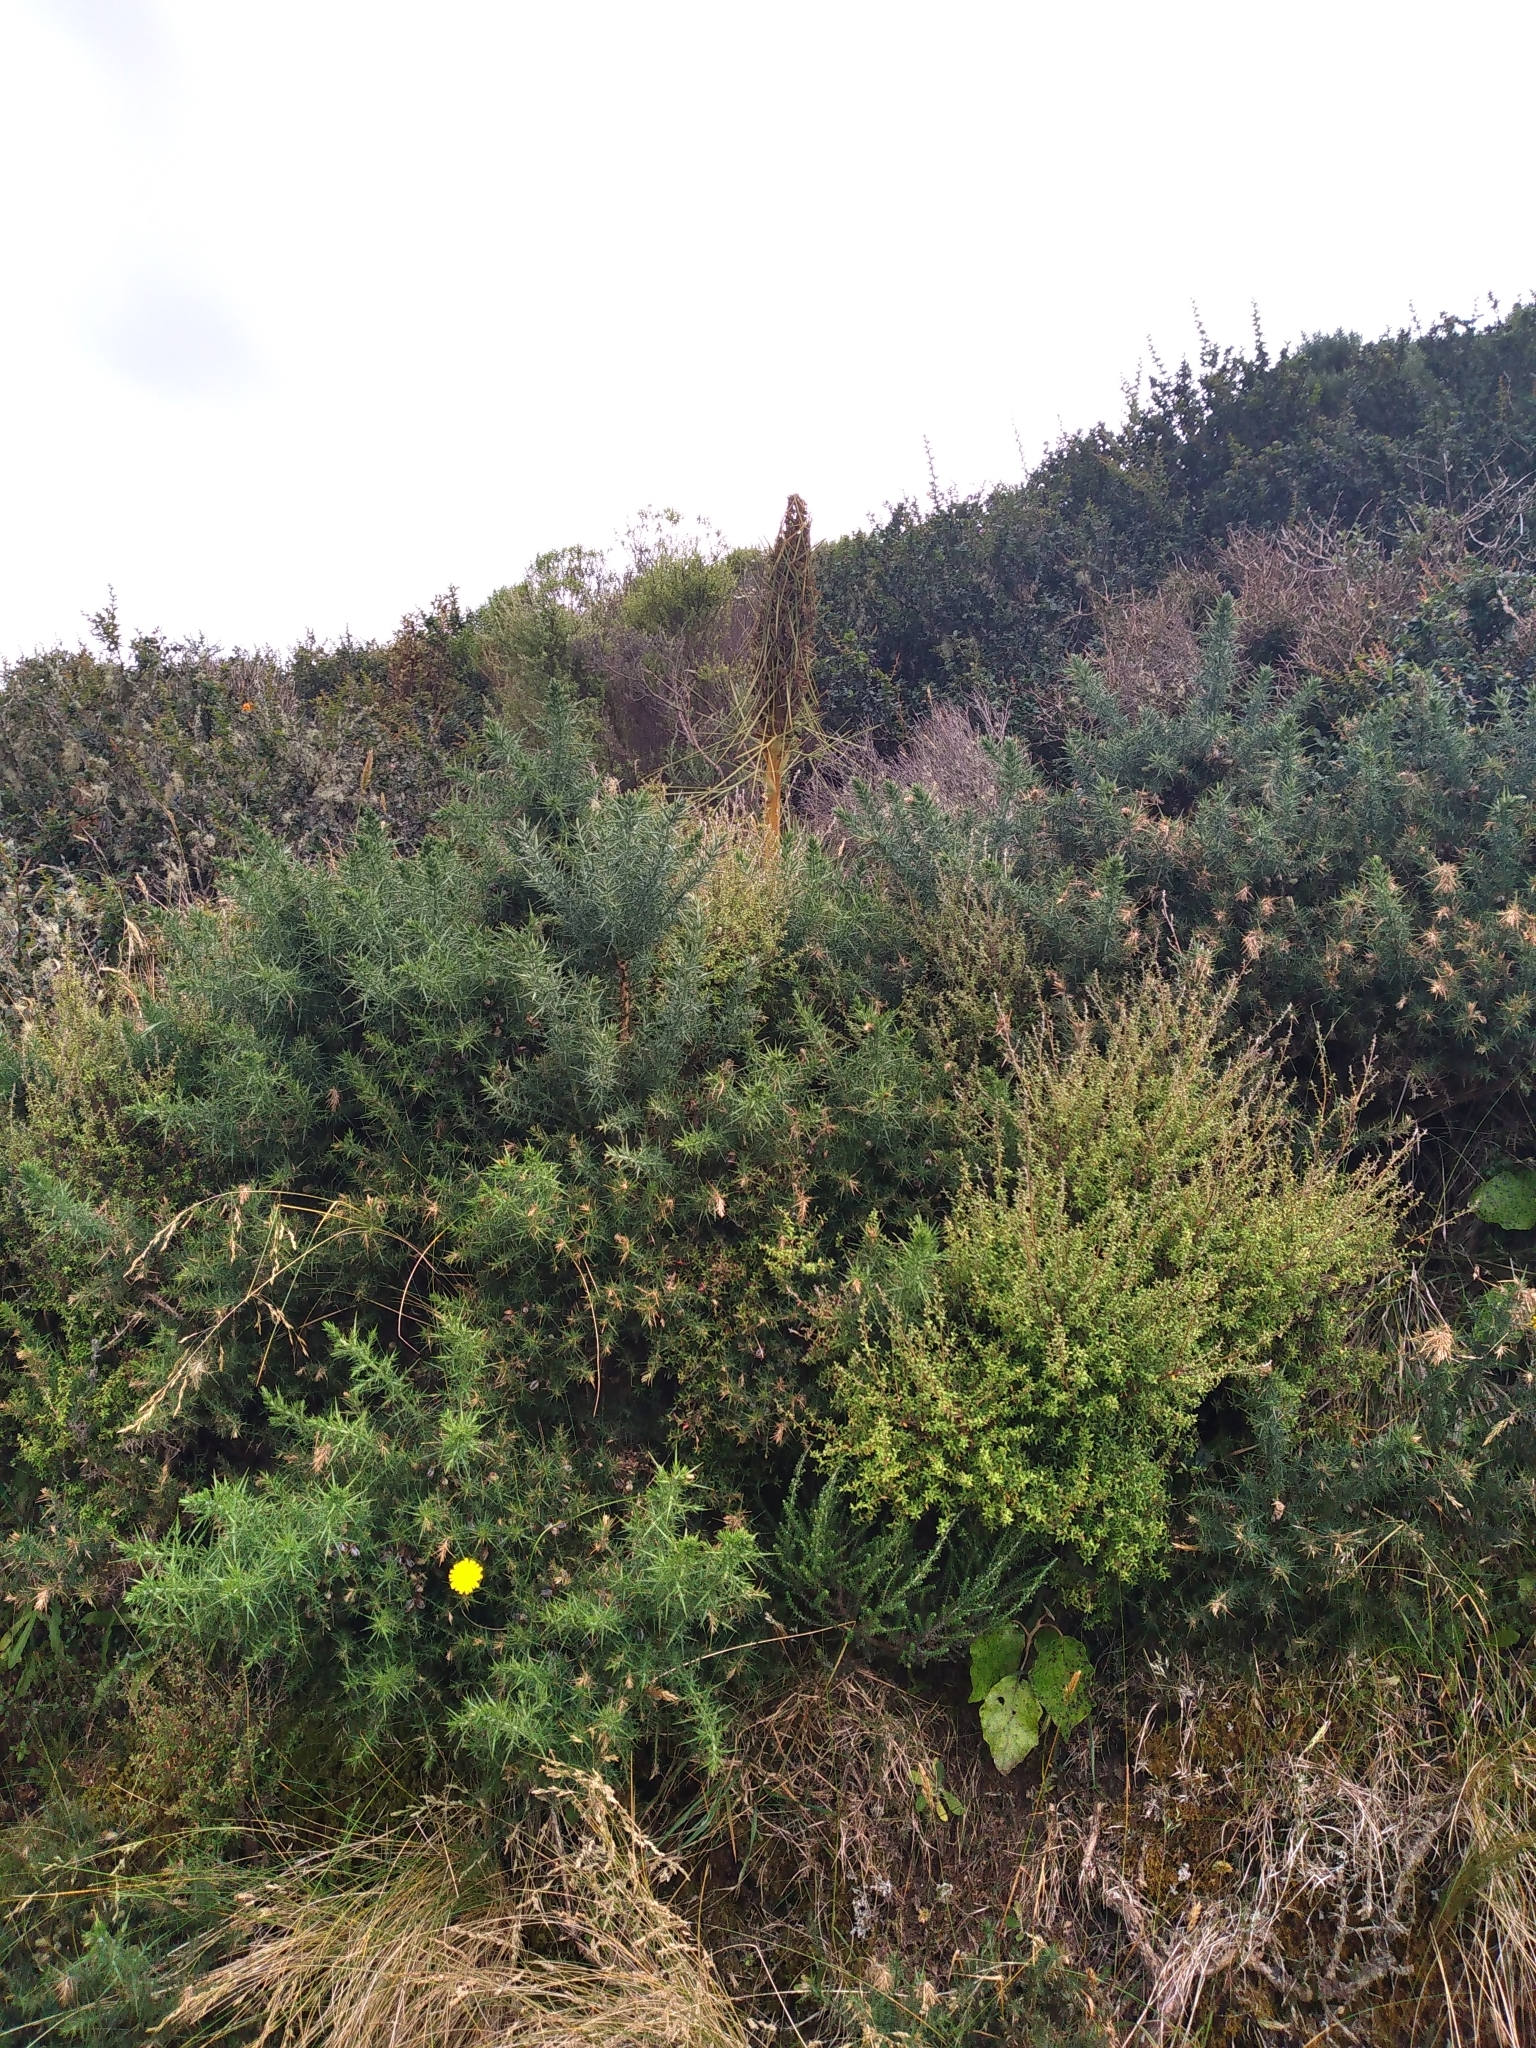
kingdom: Plantae
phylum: Tracheophyta
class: Magnoliopsida
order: Apiales
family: Apiaceae
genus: Aciphylla
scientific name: Aciphylla squarrosa
